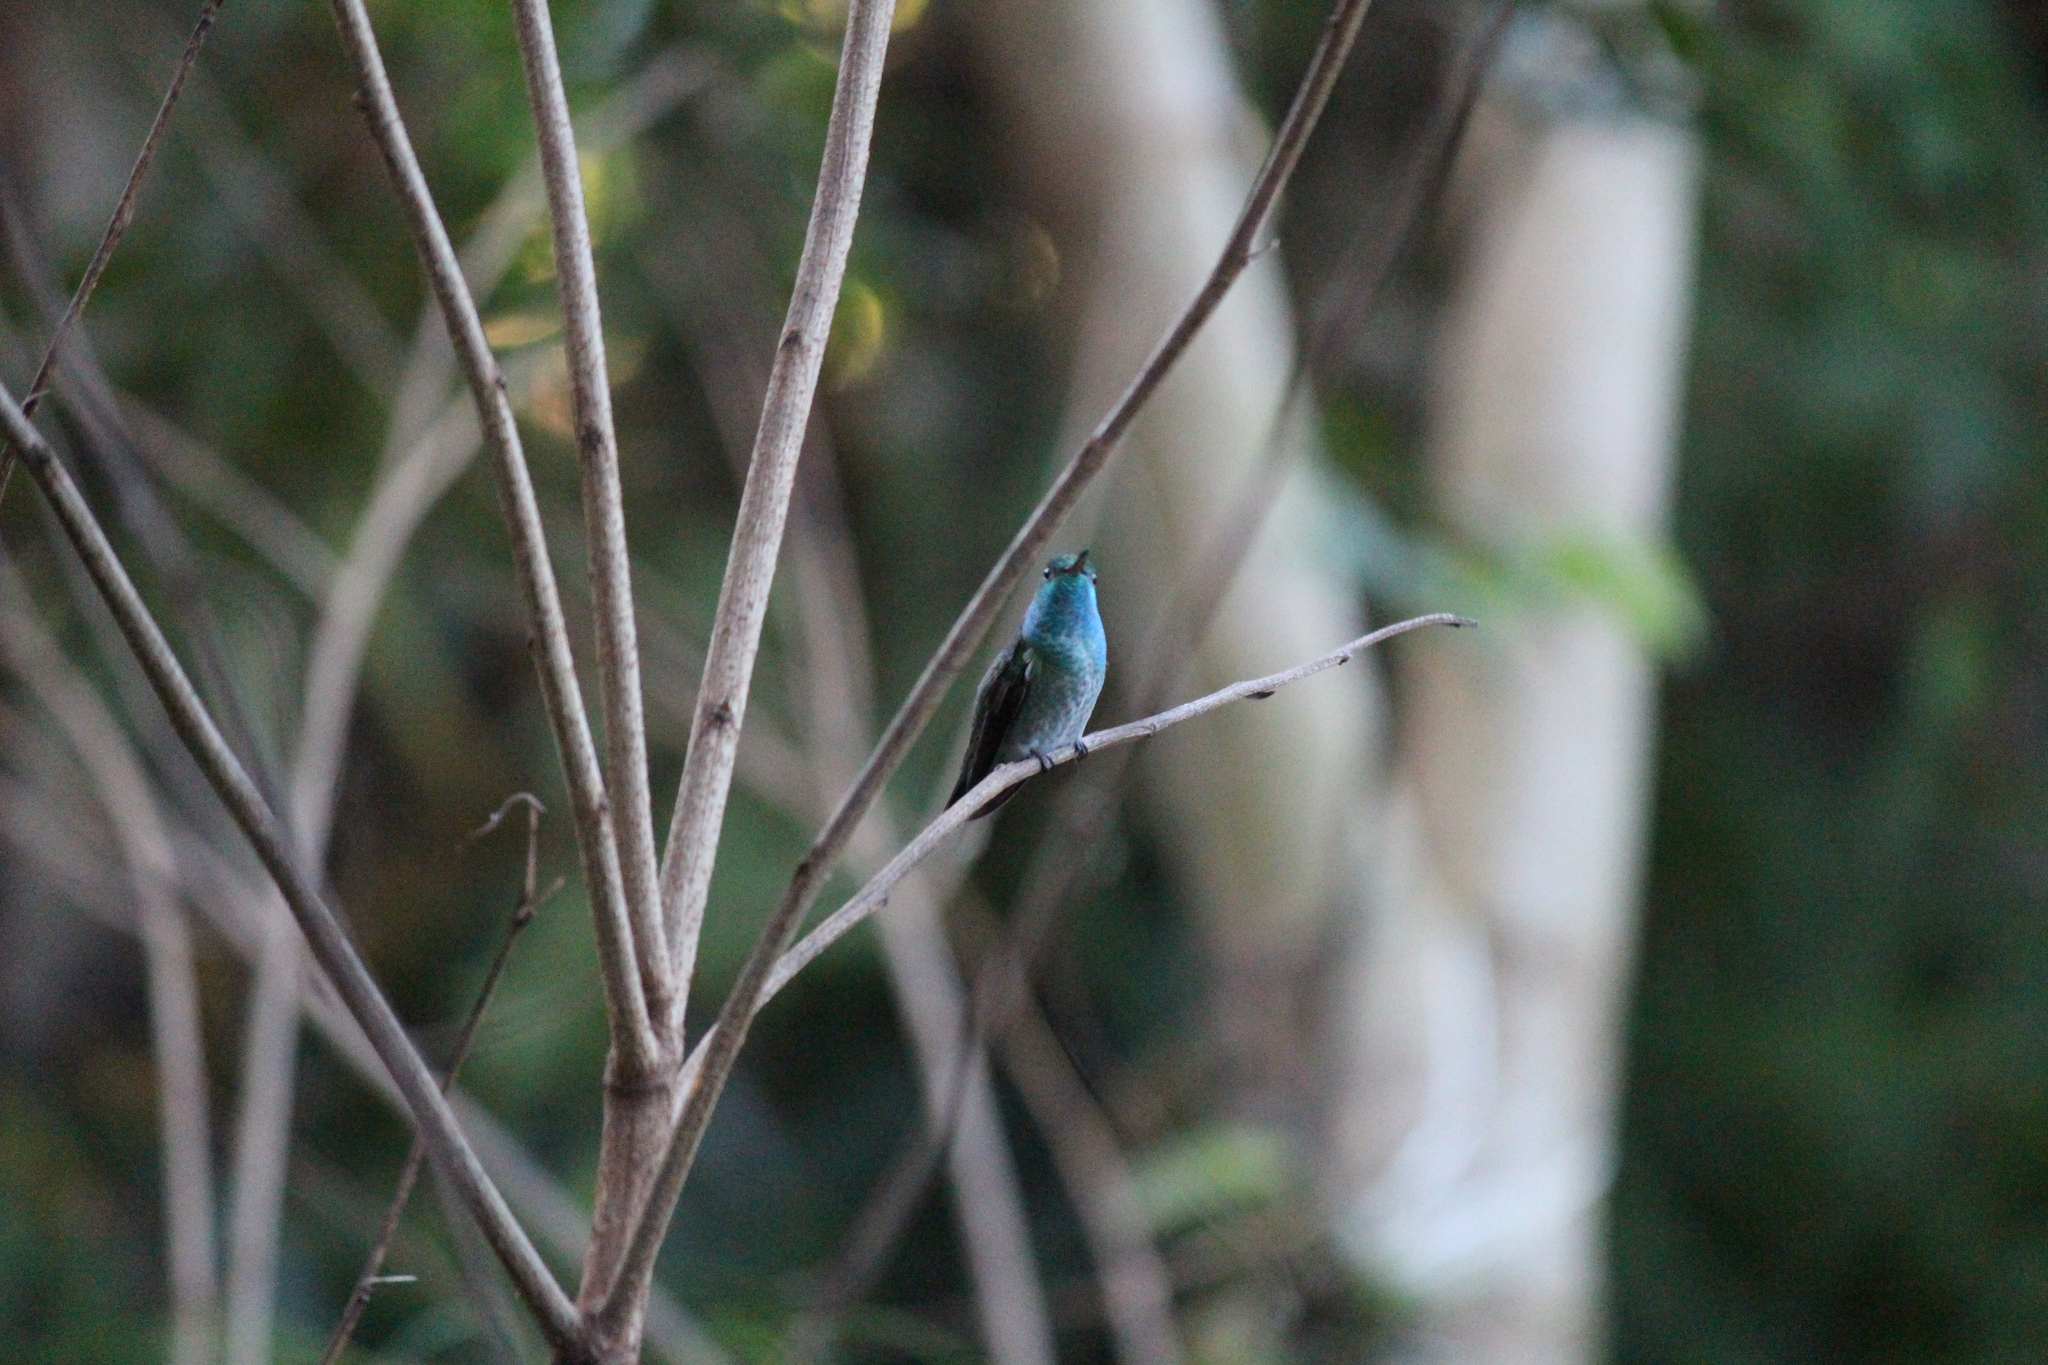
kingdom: Animalia
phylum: Chordata
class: Aves
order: Apodiformes
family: Trochilidae
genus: Chrysuronia
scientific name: Chrysuronia versicolor
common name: Versicolored emerald
